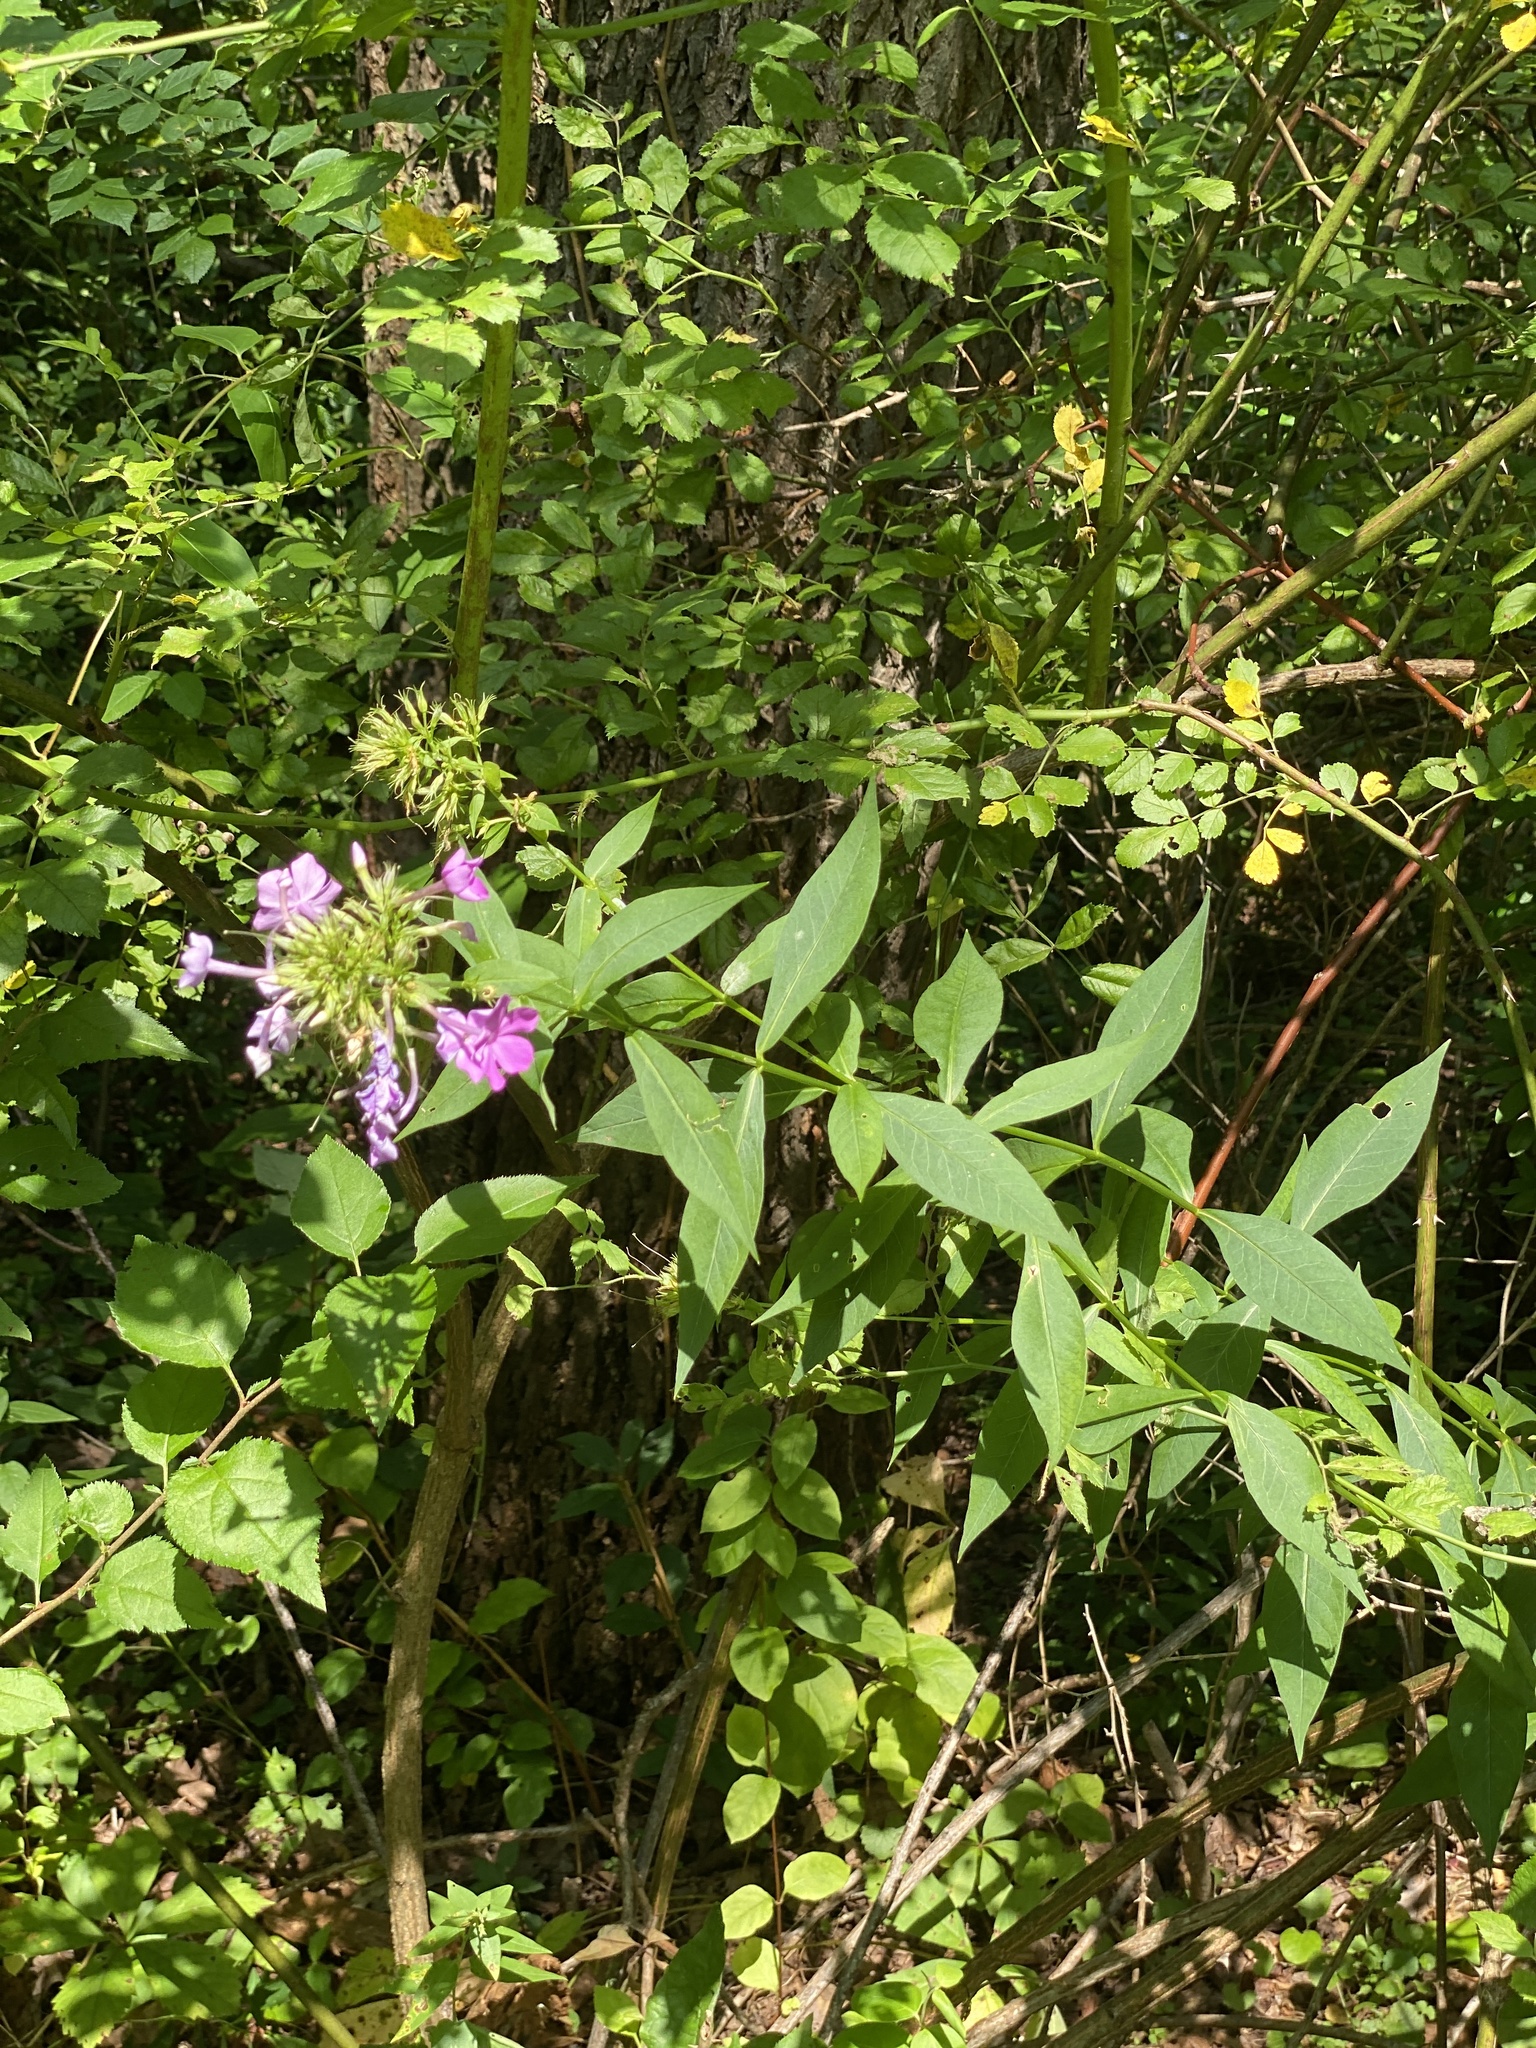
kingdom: Plantae
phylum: Tracheophyta
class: Magnoliopsida
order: Ericales
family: Polemoniaceae
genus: Phlox
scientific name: Phlox paniculata
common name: Fall phlox
